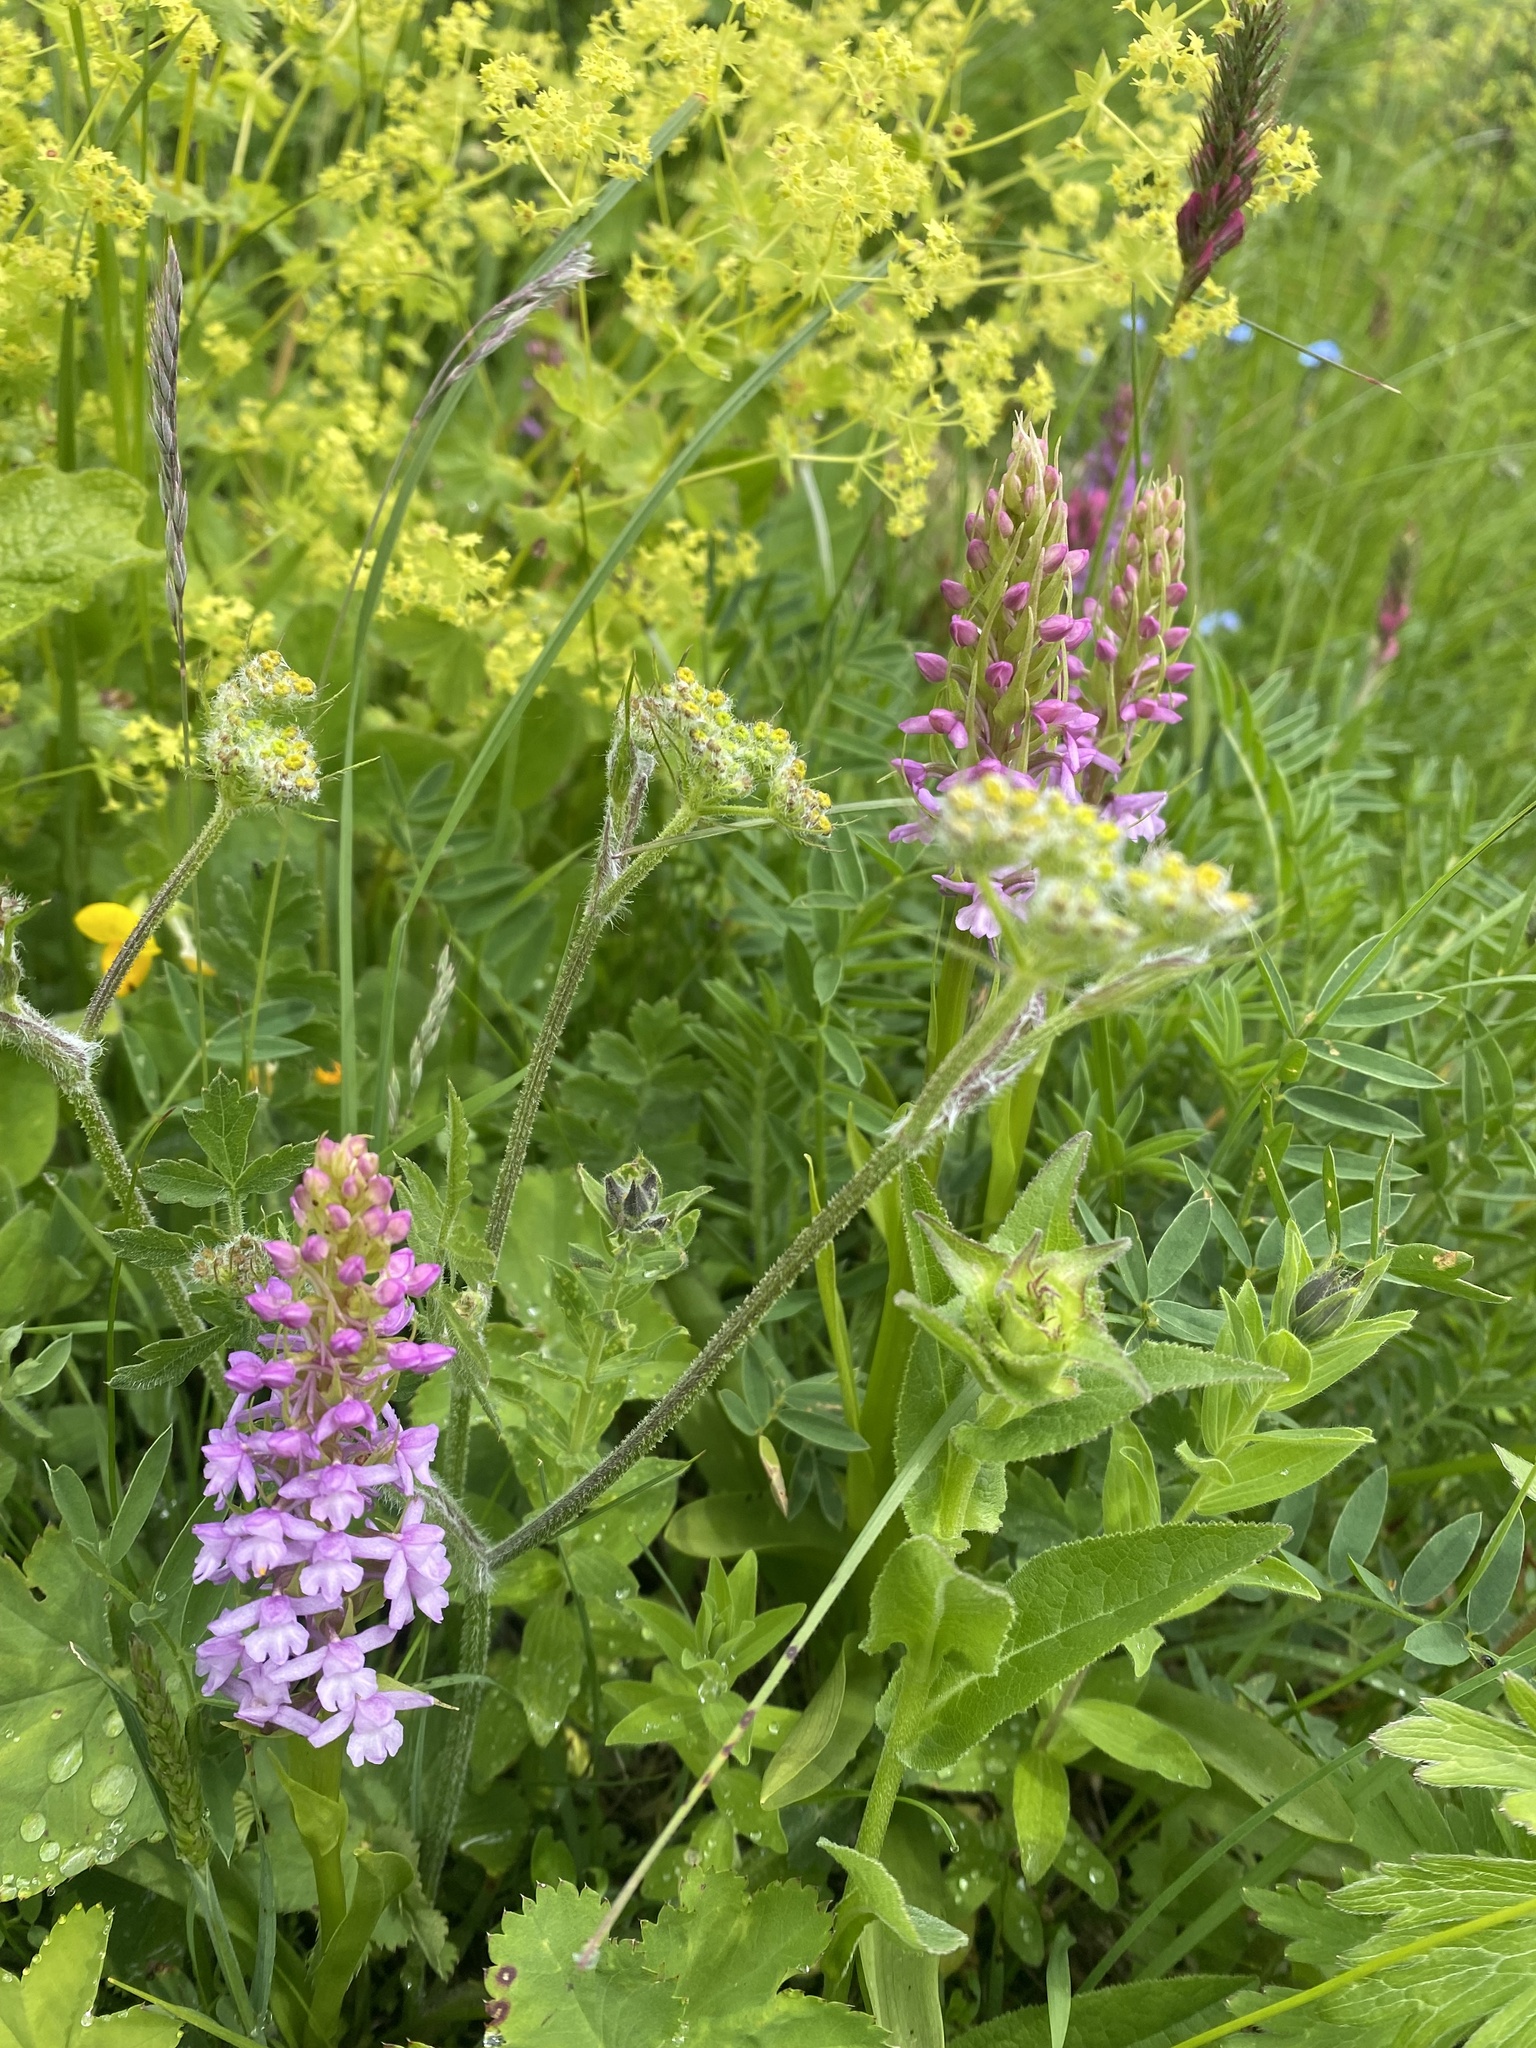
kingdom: Plantae
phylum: Tracheophyta
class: Liliopsida
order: Asparagales
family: Orchidaceae
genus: Gymnadenia
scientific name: Gymnadenia conopsea
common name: Fragrant orchid
